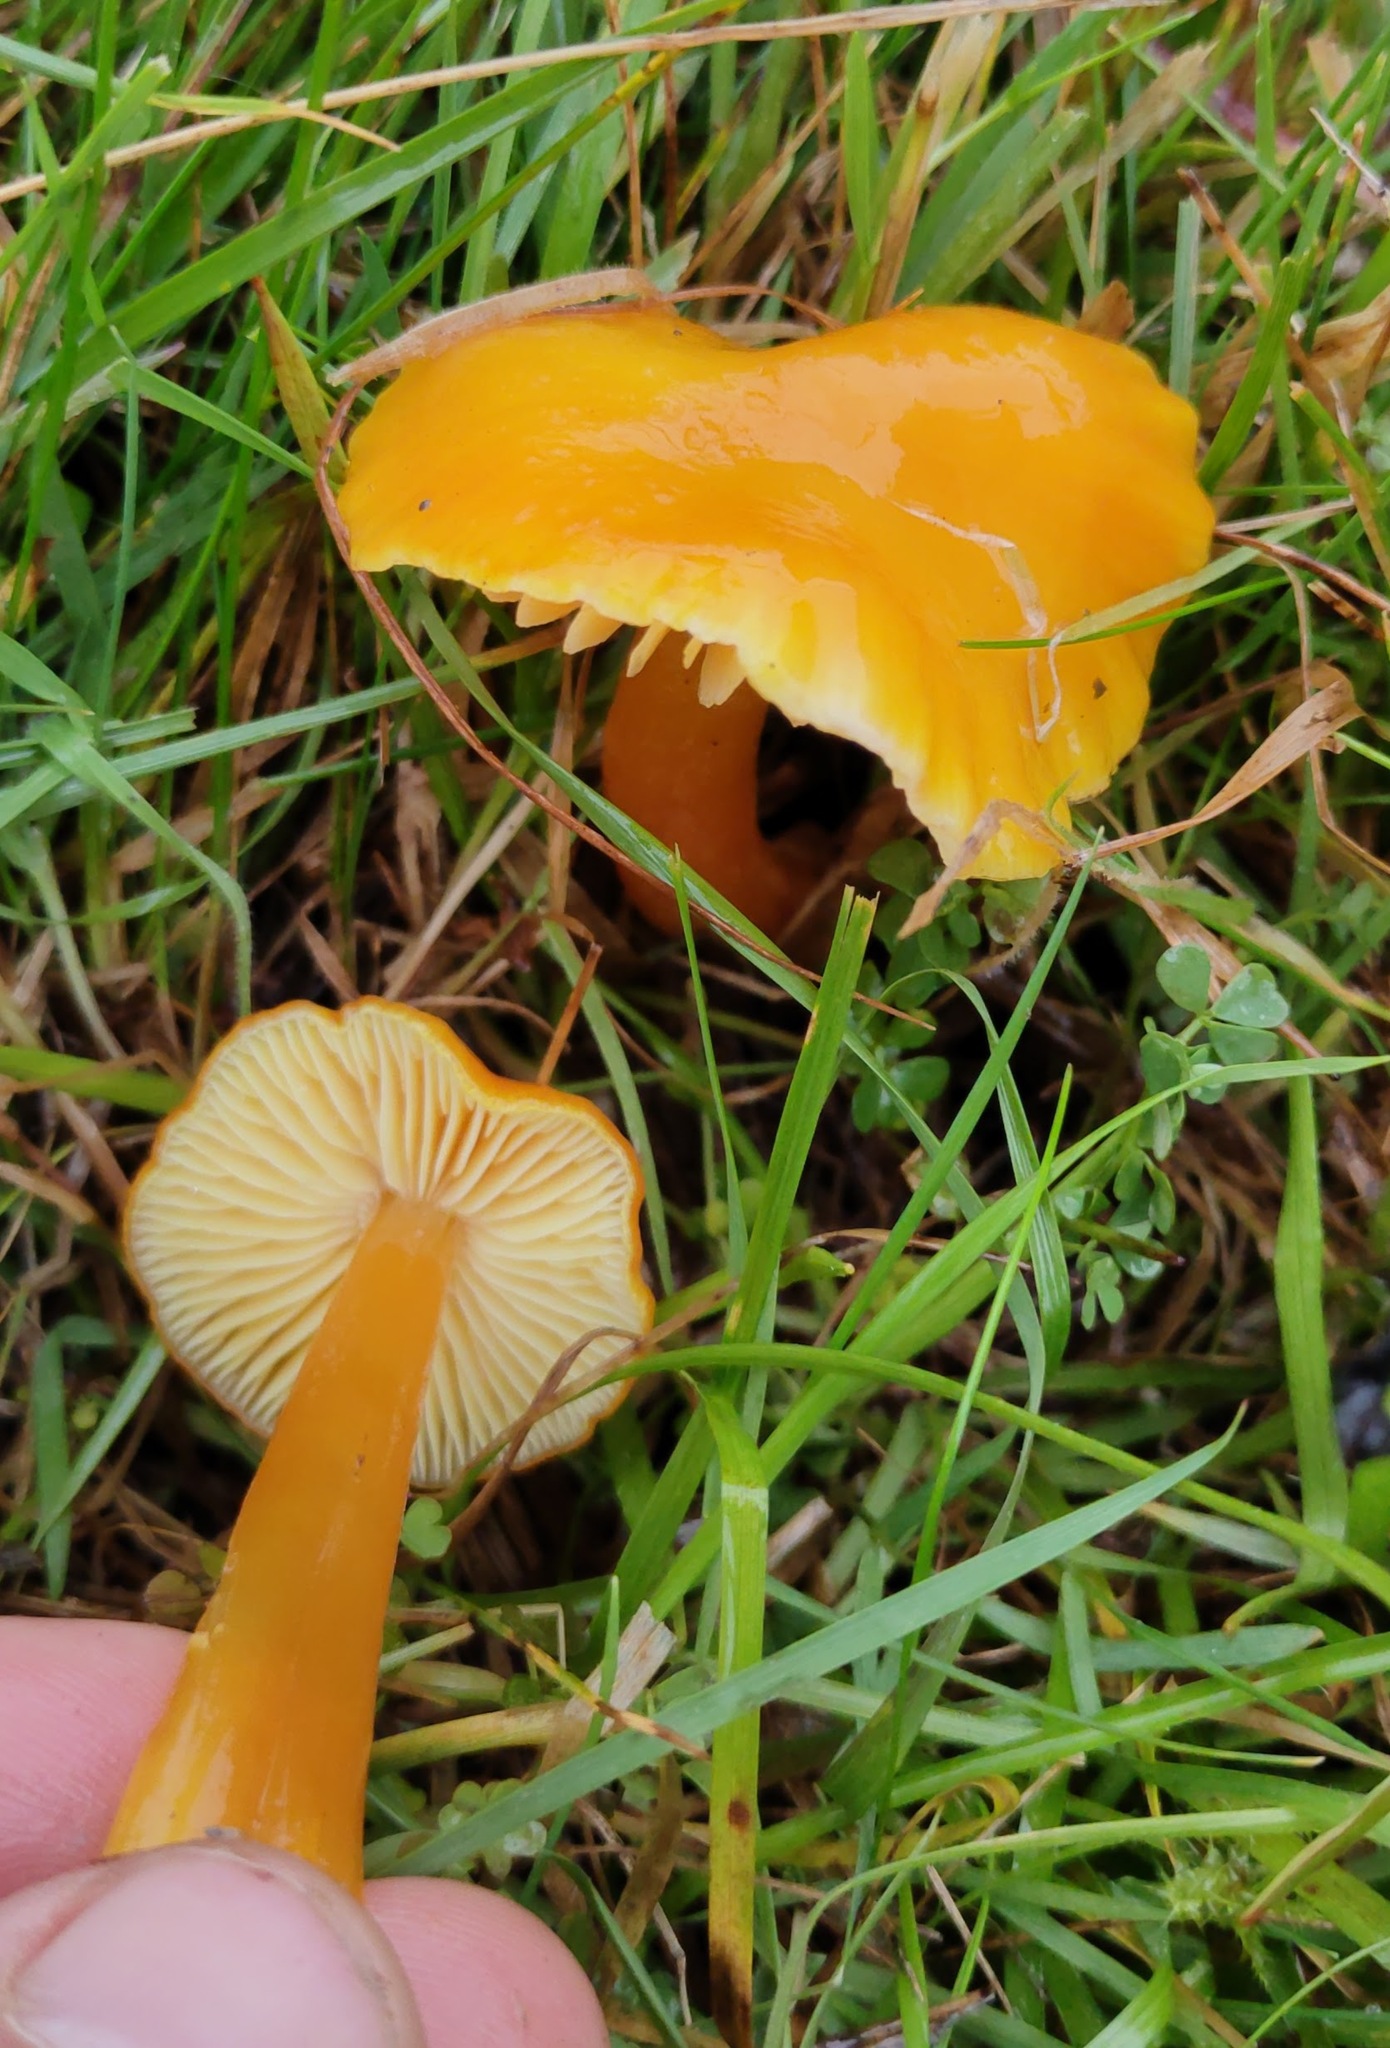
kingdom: Fungi
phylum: Basidiomycota
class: Agaricomycetes
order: Agaricales
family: Hygrophoraceae
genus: Hygrocybe
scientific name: Hygrocybe chlorophana
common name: Golden waxcap
